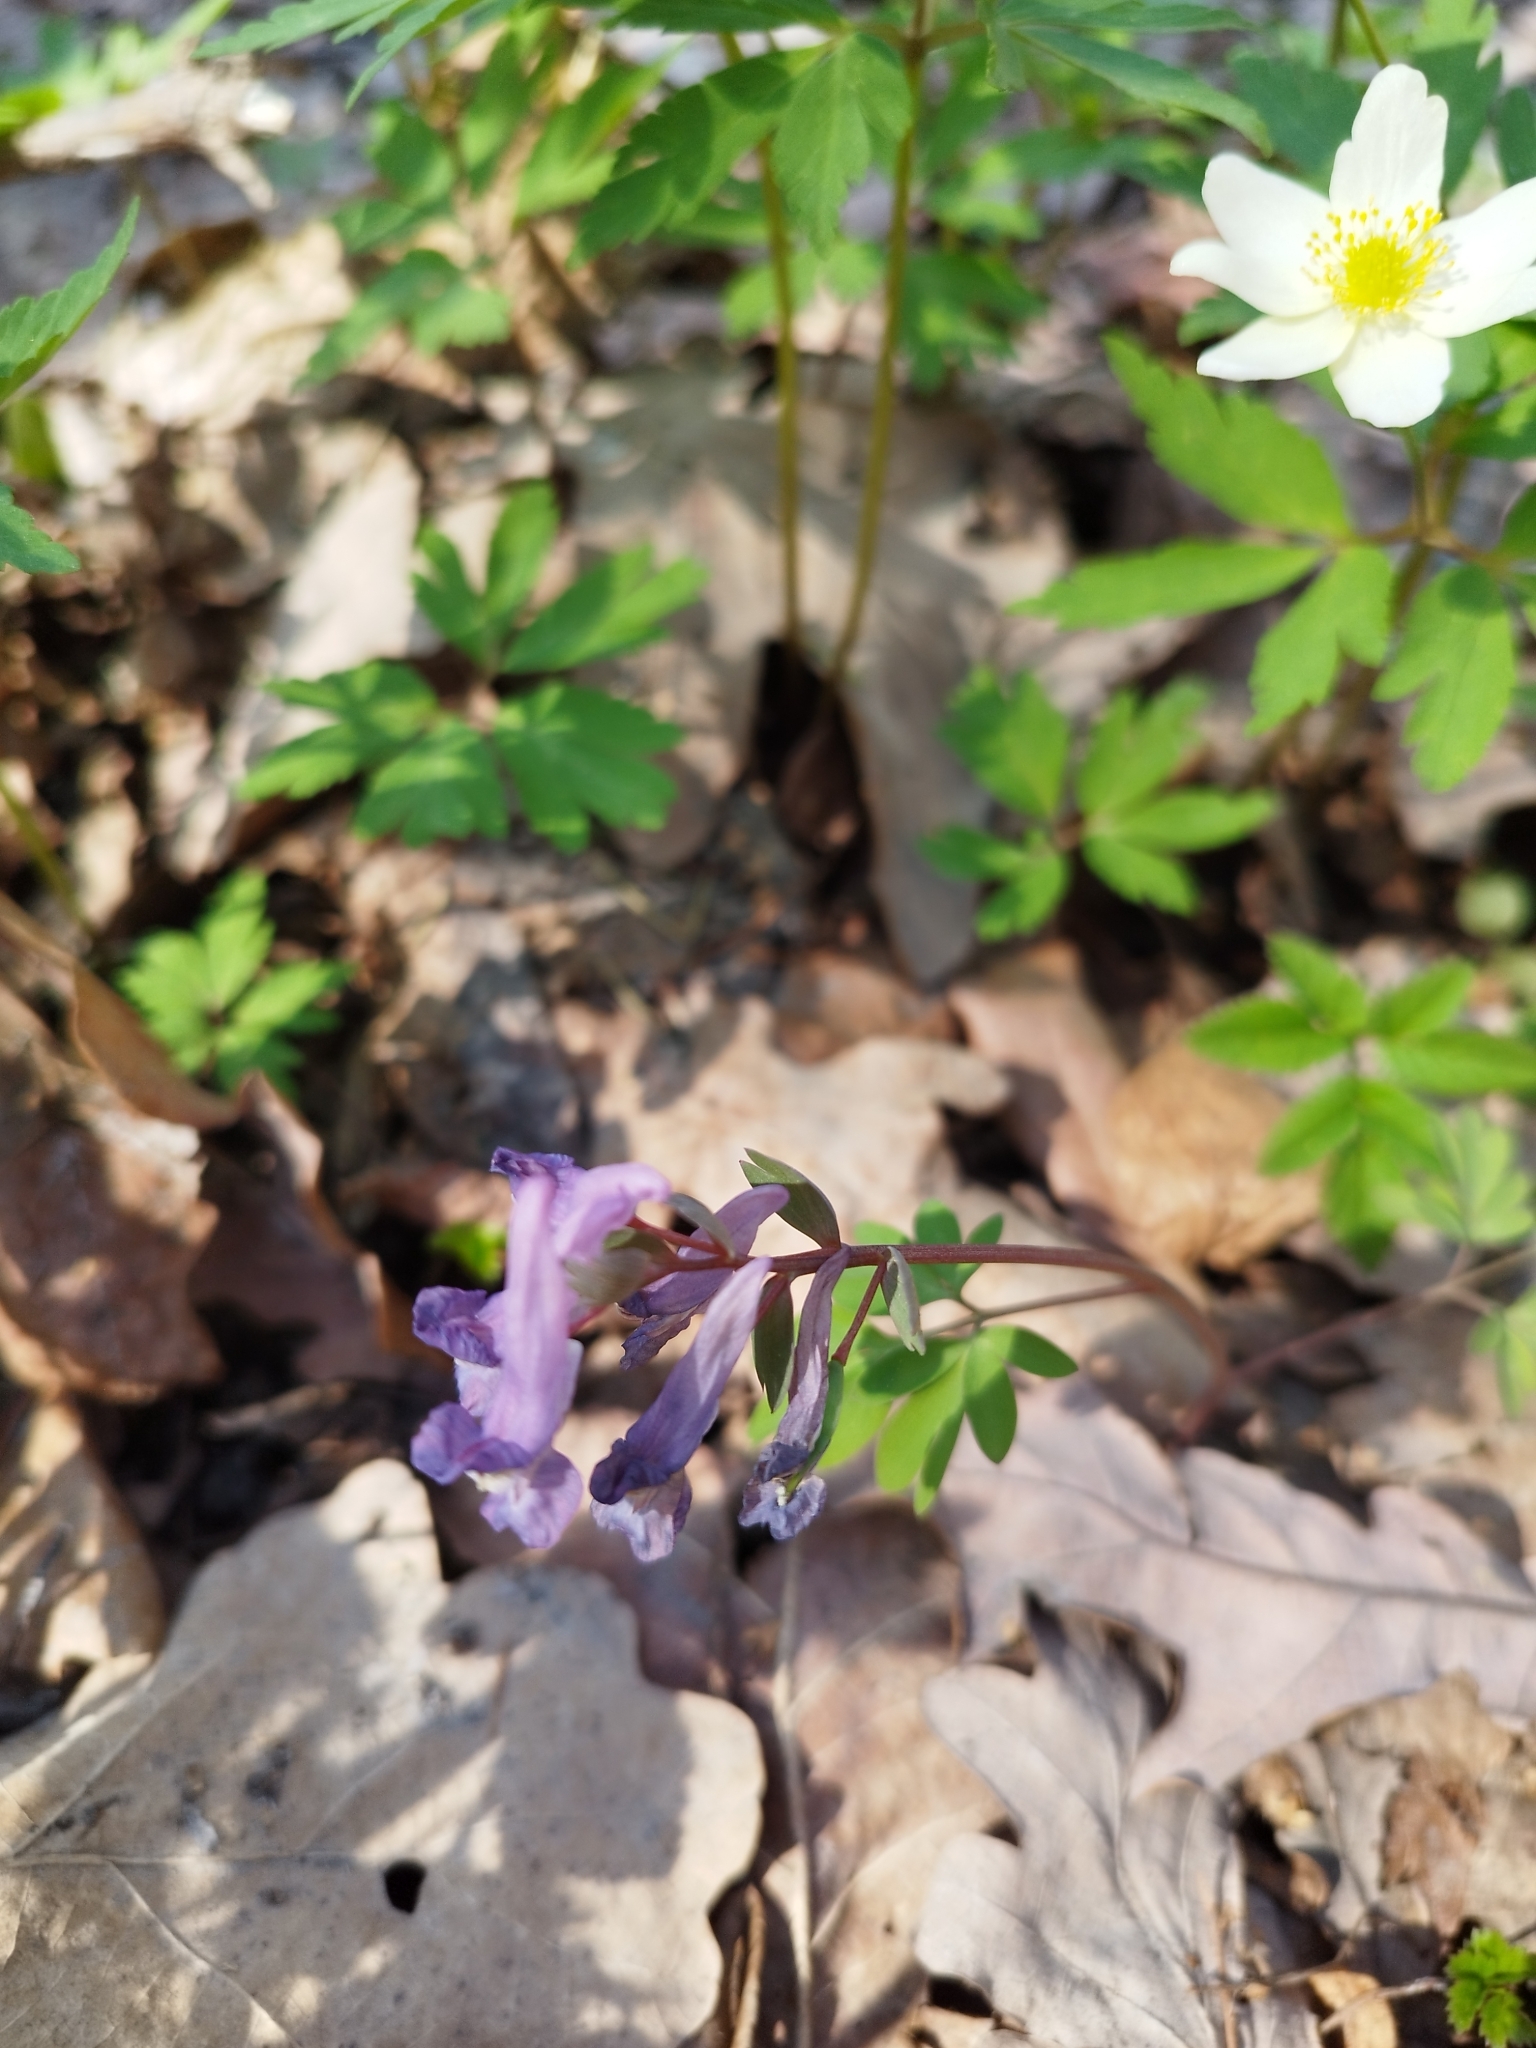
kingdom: Plantae
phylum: Tracheophyta
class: Magnoliopsida
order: Ranunculales
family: Papaveraceae
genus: Corydalis
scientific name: Corydalis solida
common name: Bird-in-a-bush
